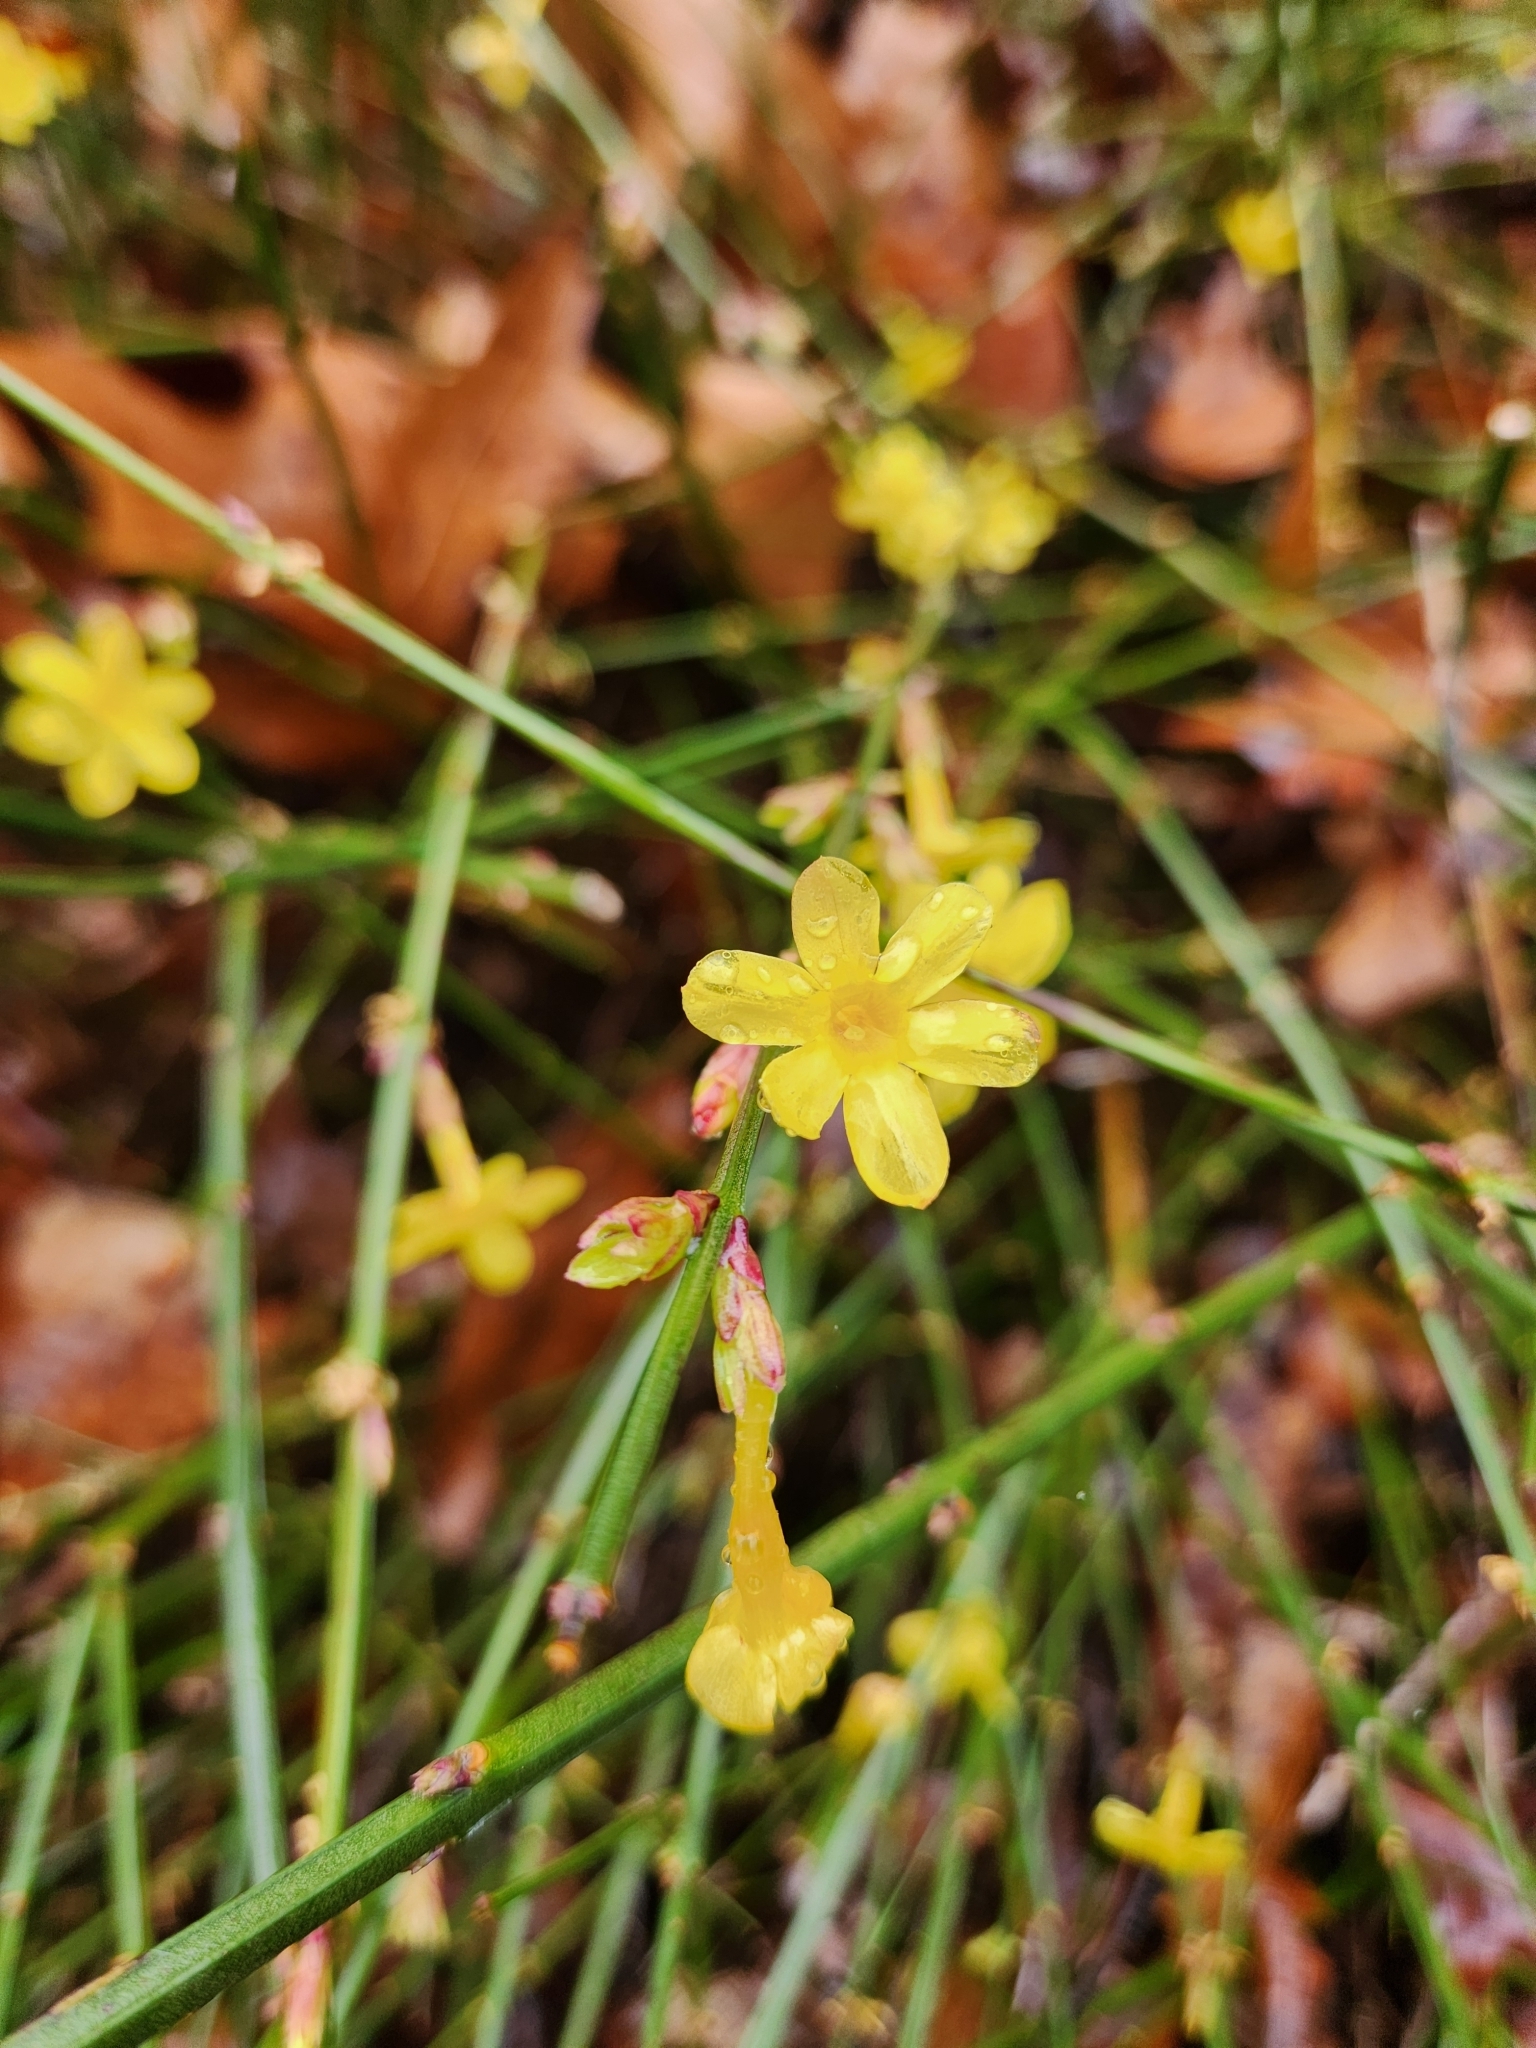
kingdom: Plantae
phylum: Tracheophyta
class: Magnoliopsida
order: Lamiales
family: Oleaceae
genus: Jasminum
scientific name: Jasminum nudiflorum
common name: Winter jasmine
